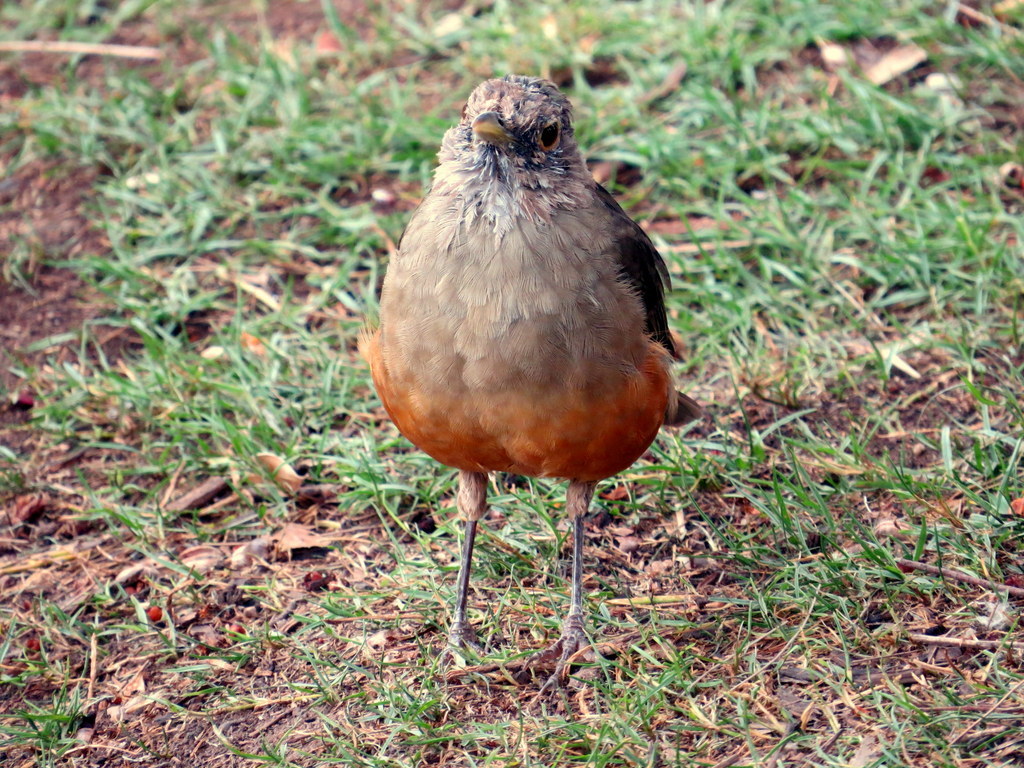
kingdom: Animalia
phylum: Chordata
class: Aves
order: Passeriformes
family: Turdidae
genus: Turdus
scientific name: Turdus rufiventris
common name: Rufous-bellied thrush
